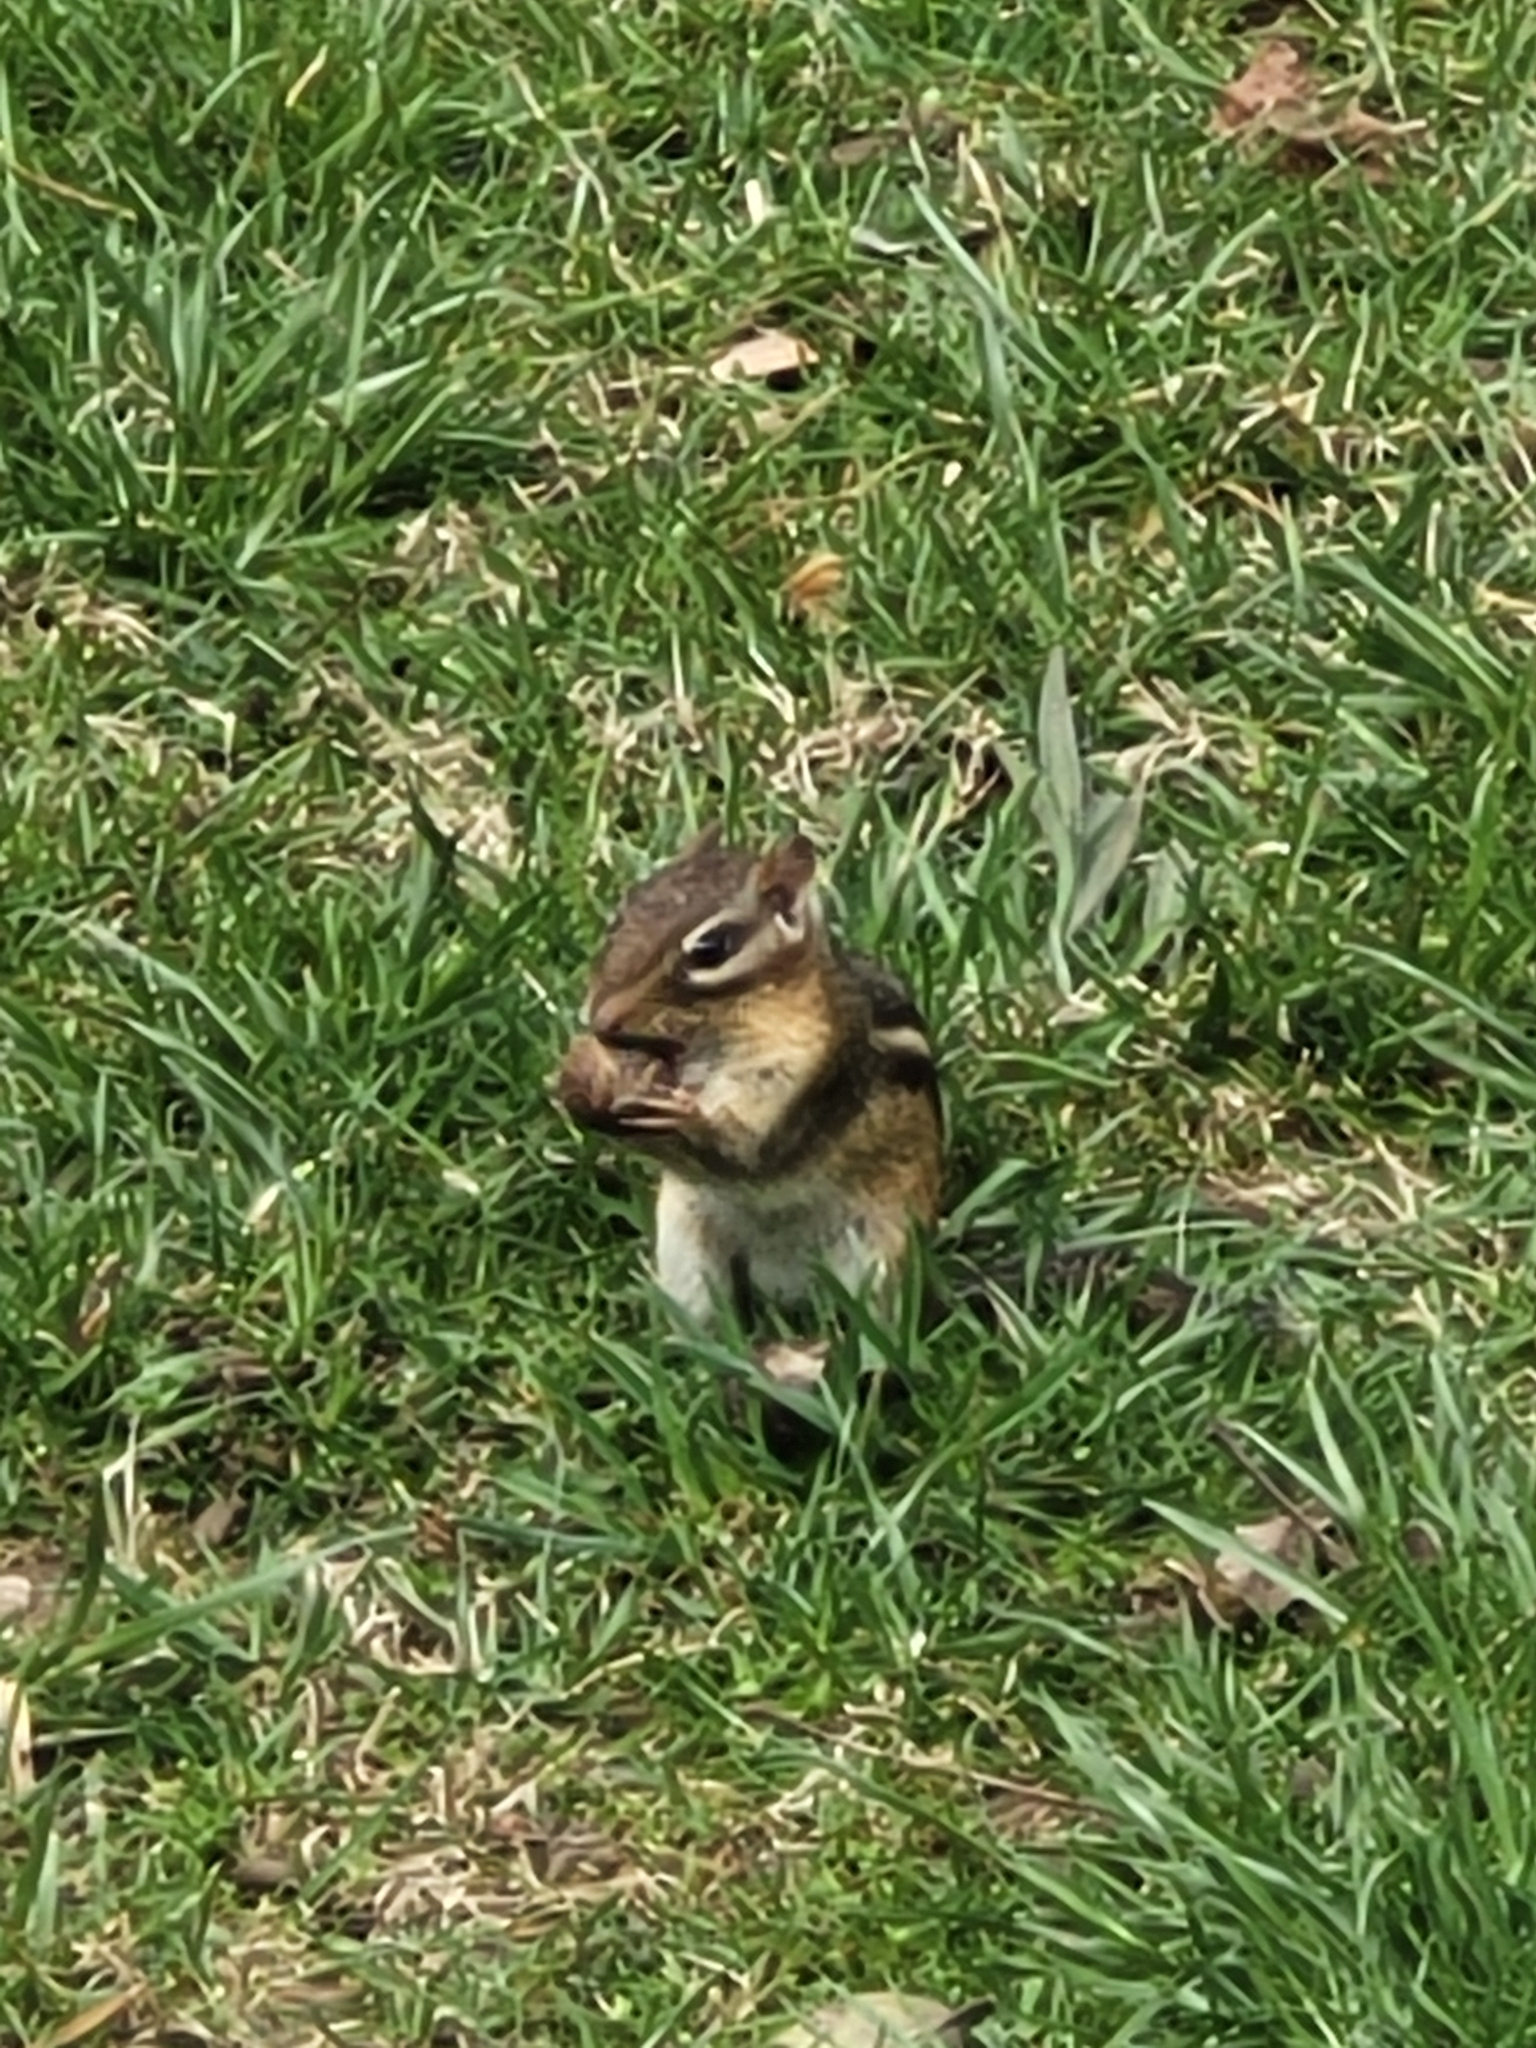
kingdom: Animalia
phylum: Chordata
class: Mammalia
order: Rodentia
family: Sciuridae
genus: Tamias
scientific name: Tamias striatus
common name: Eastern chipmunk
